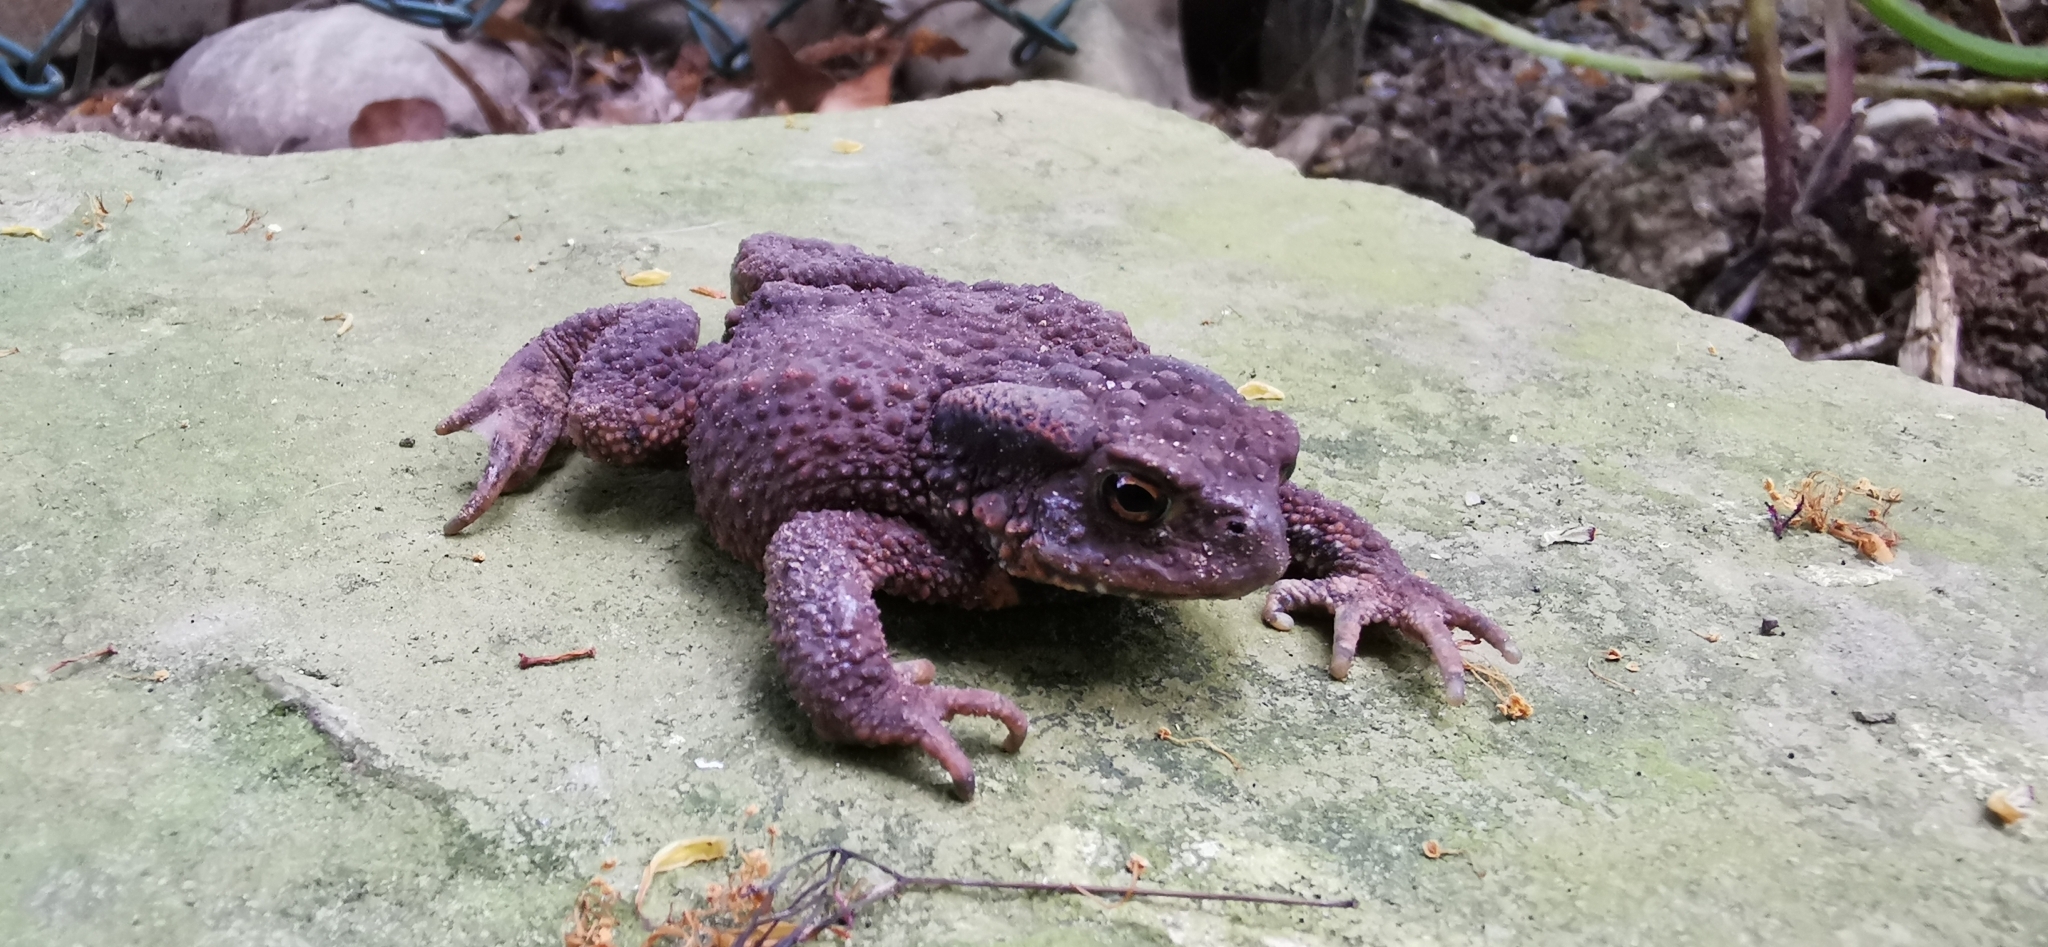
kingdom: Animalia
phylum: Chordata
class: Amphibia
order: Anura
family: Bufonidae
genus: Bufo
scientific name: Bufo bufo
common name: Common toad
